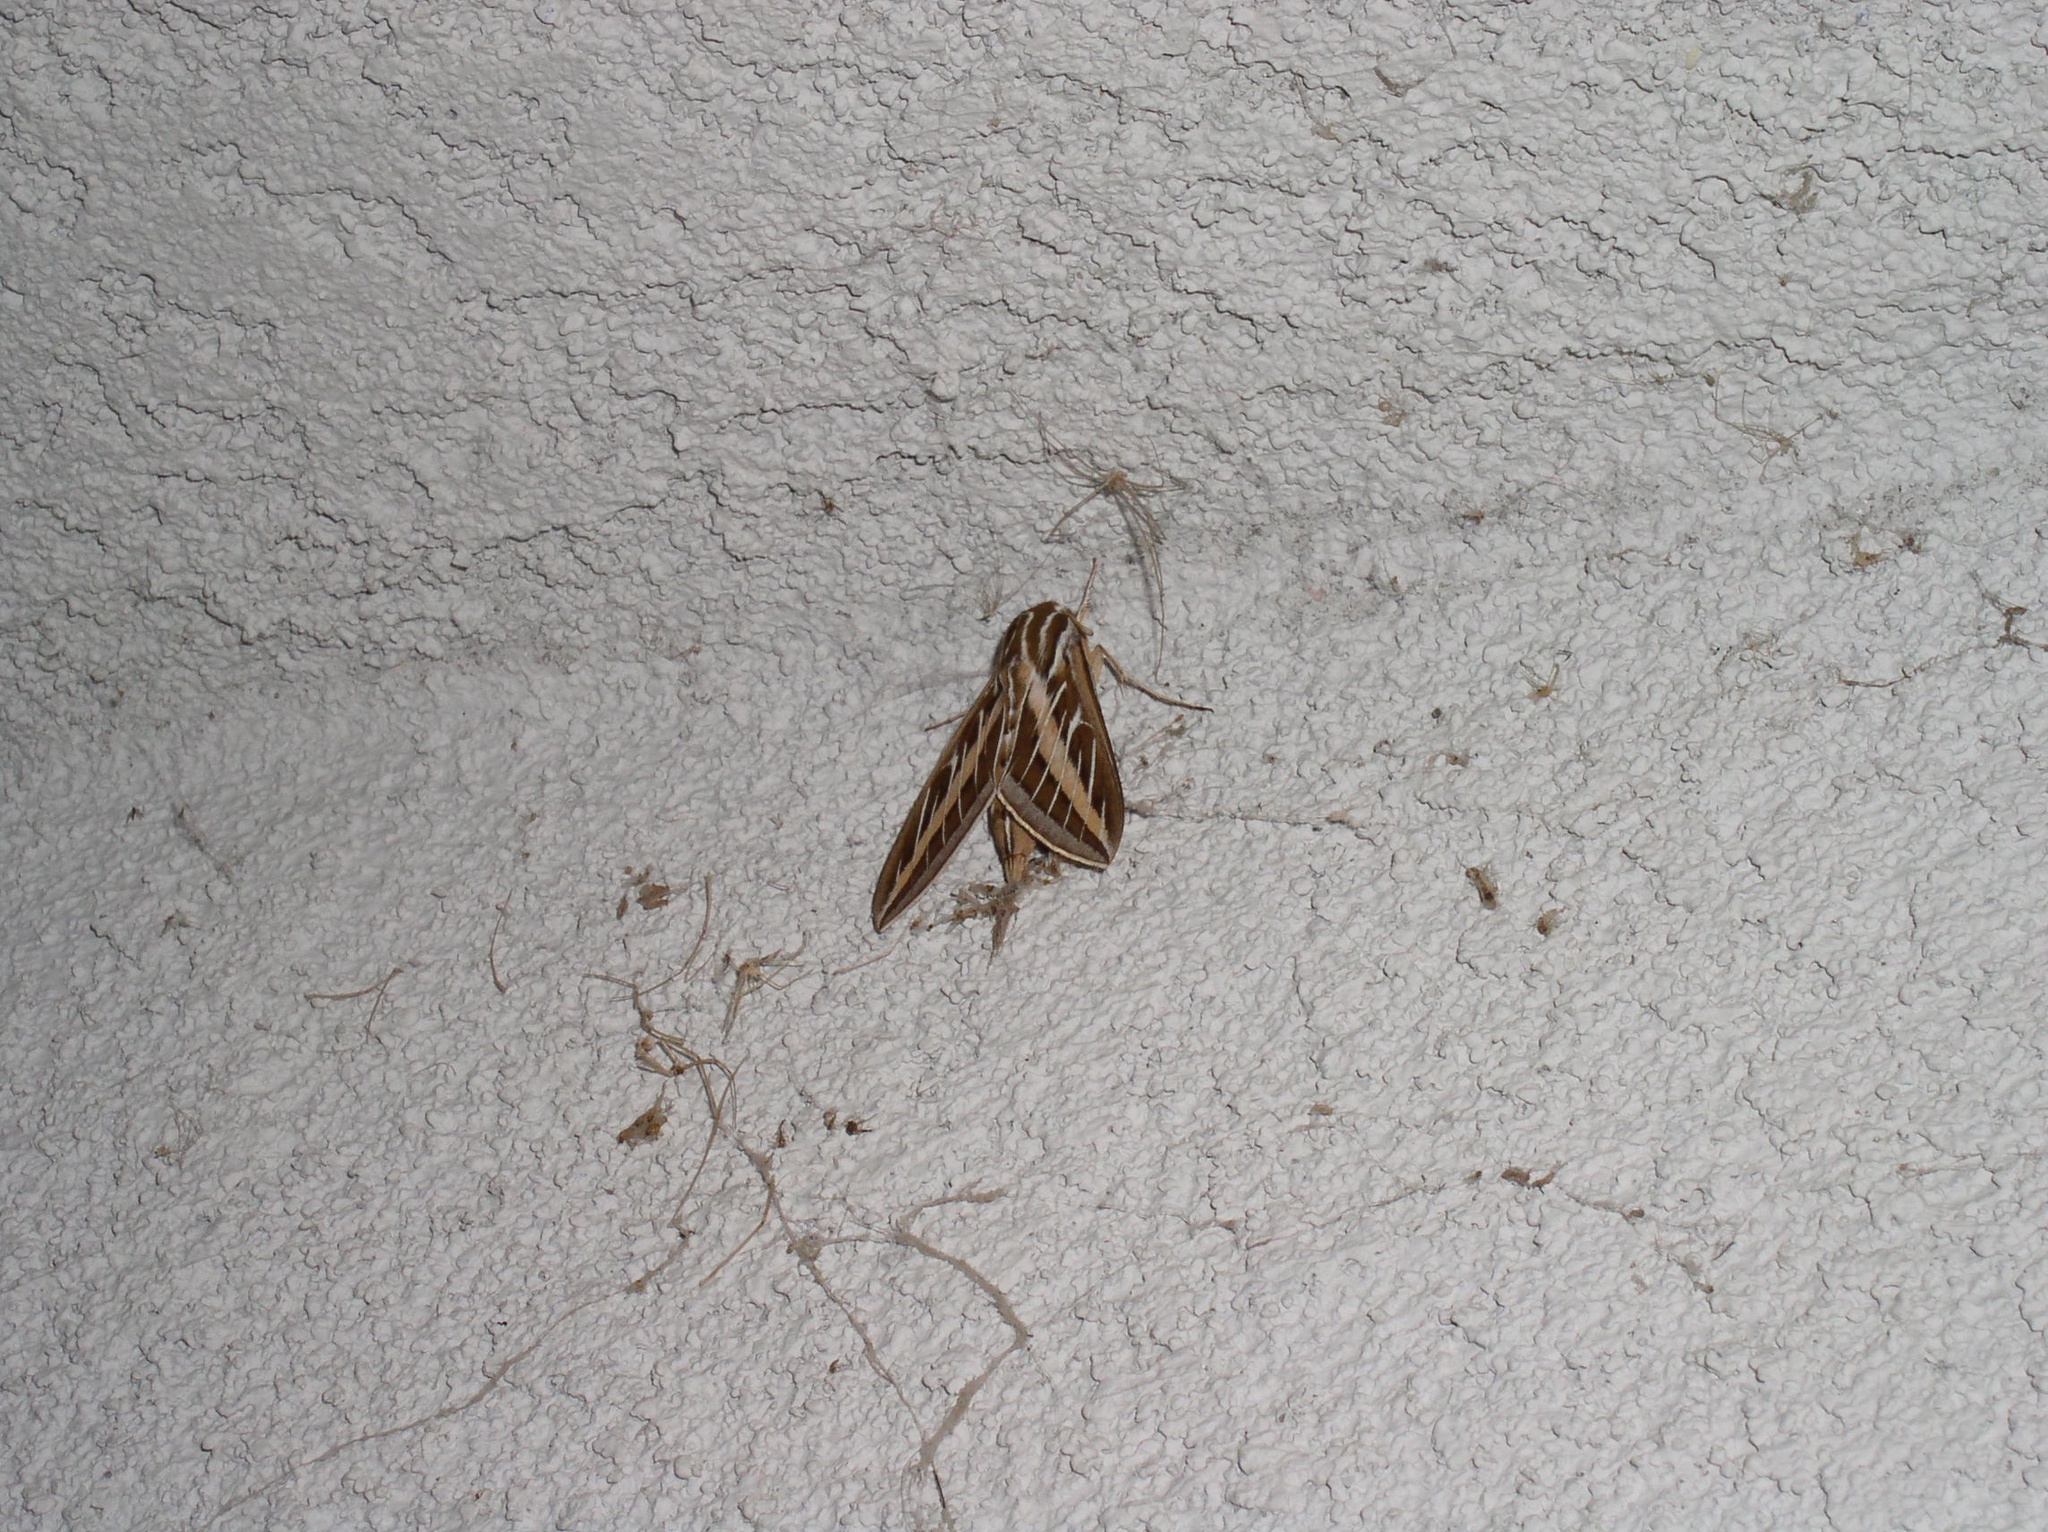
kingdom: Animalia
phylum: Arthropoda
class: Insecta
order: Lepidoptera
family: Sphingidae
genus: Hyles
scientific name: Hyles lineata
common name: White-lined sphinx
